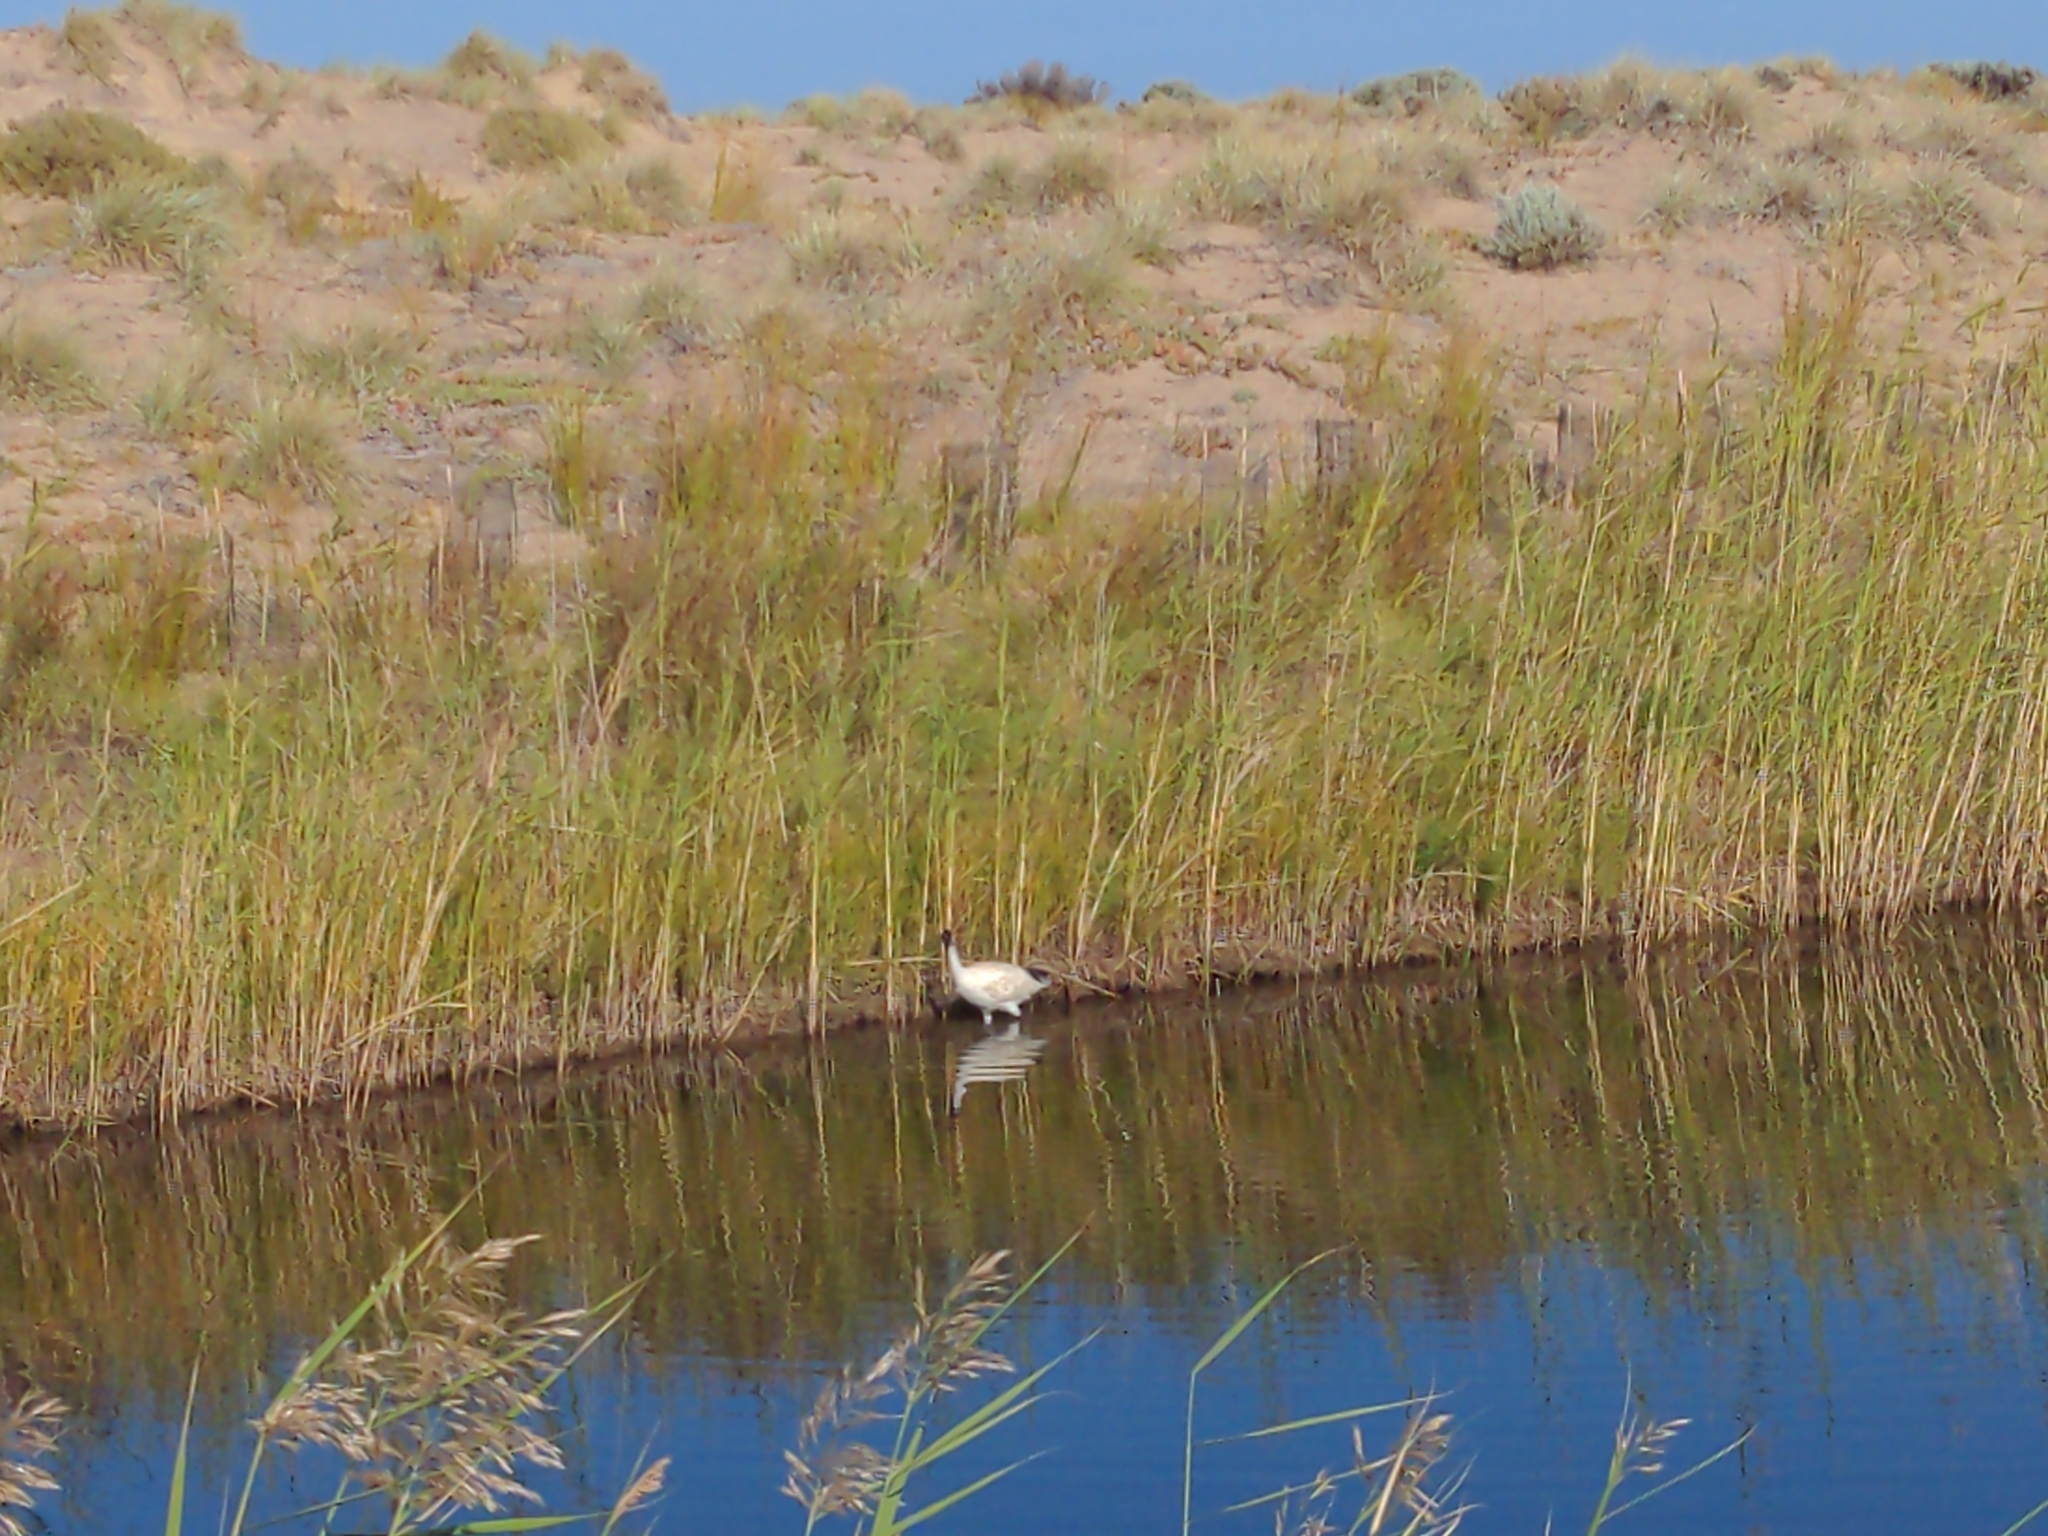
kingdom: Animalia
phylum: Chordata
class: Aves
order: Pelecaniformes
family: Threskiornithidae
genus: Threskiornis
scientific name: Threskiornis molucca
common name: Australian white ibis
